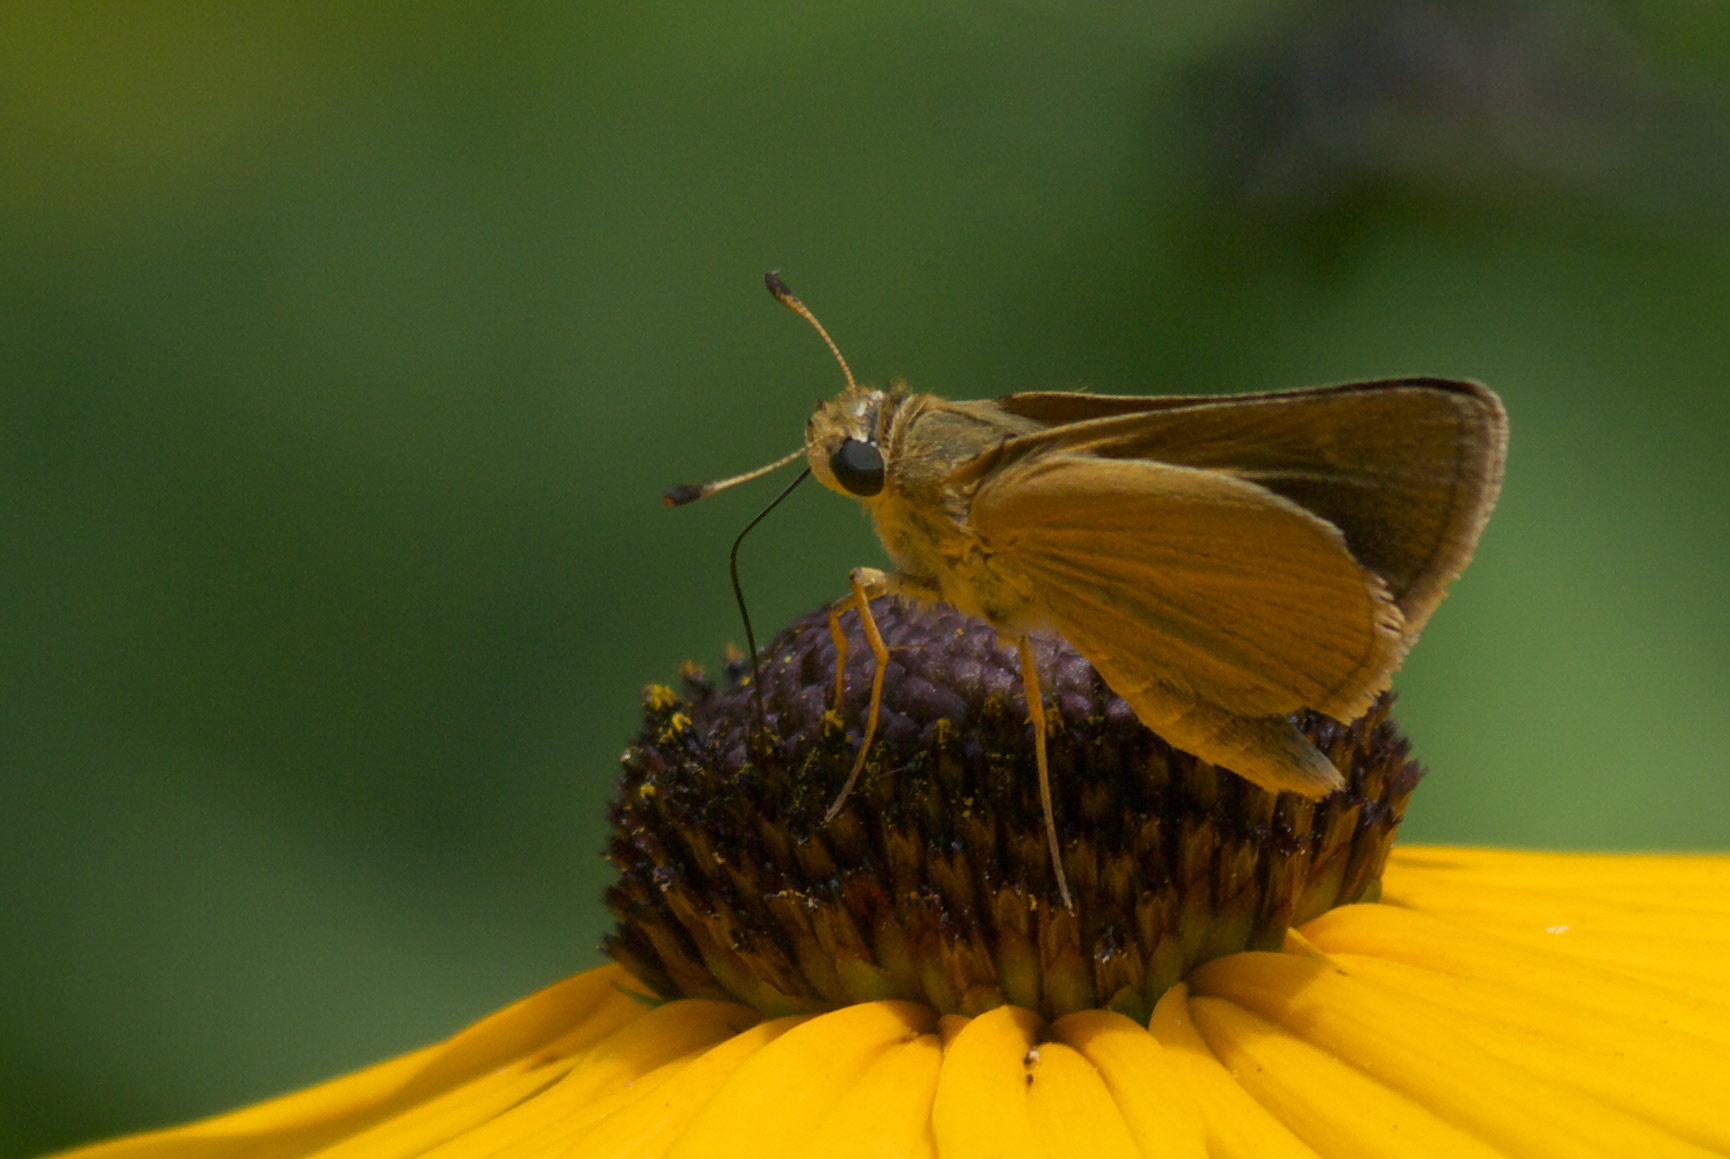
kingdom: Animalia
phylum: Arthropoda
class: Insecta
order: Lepidoptera
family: Hesperiidae
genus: Polites
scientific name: Polites themistocles
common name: Tawny-edged skipper
